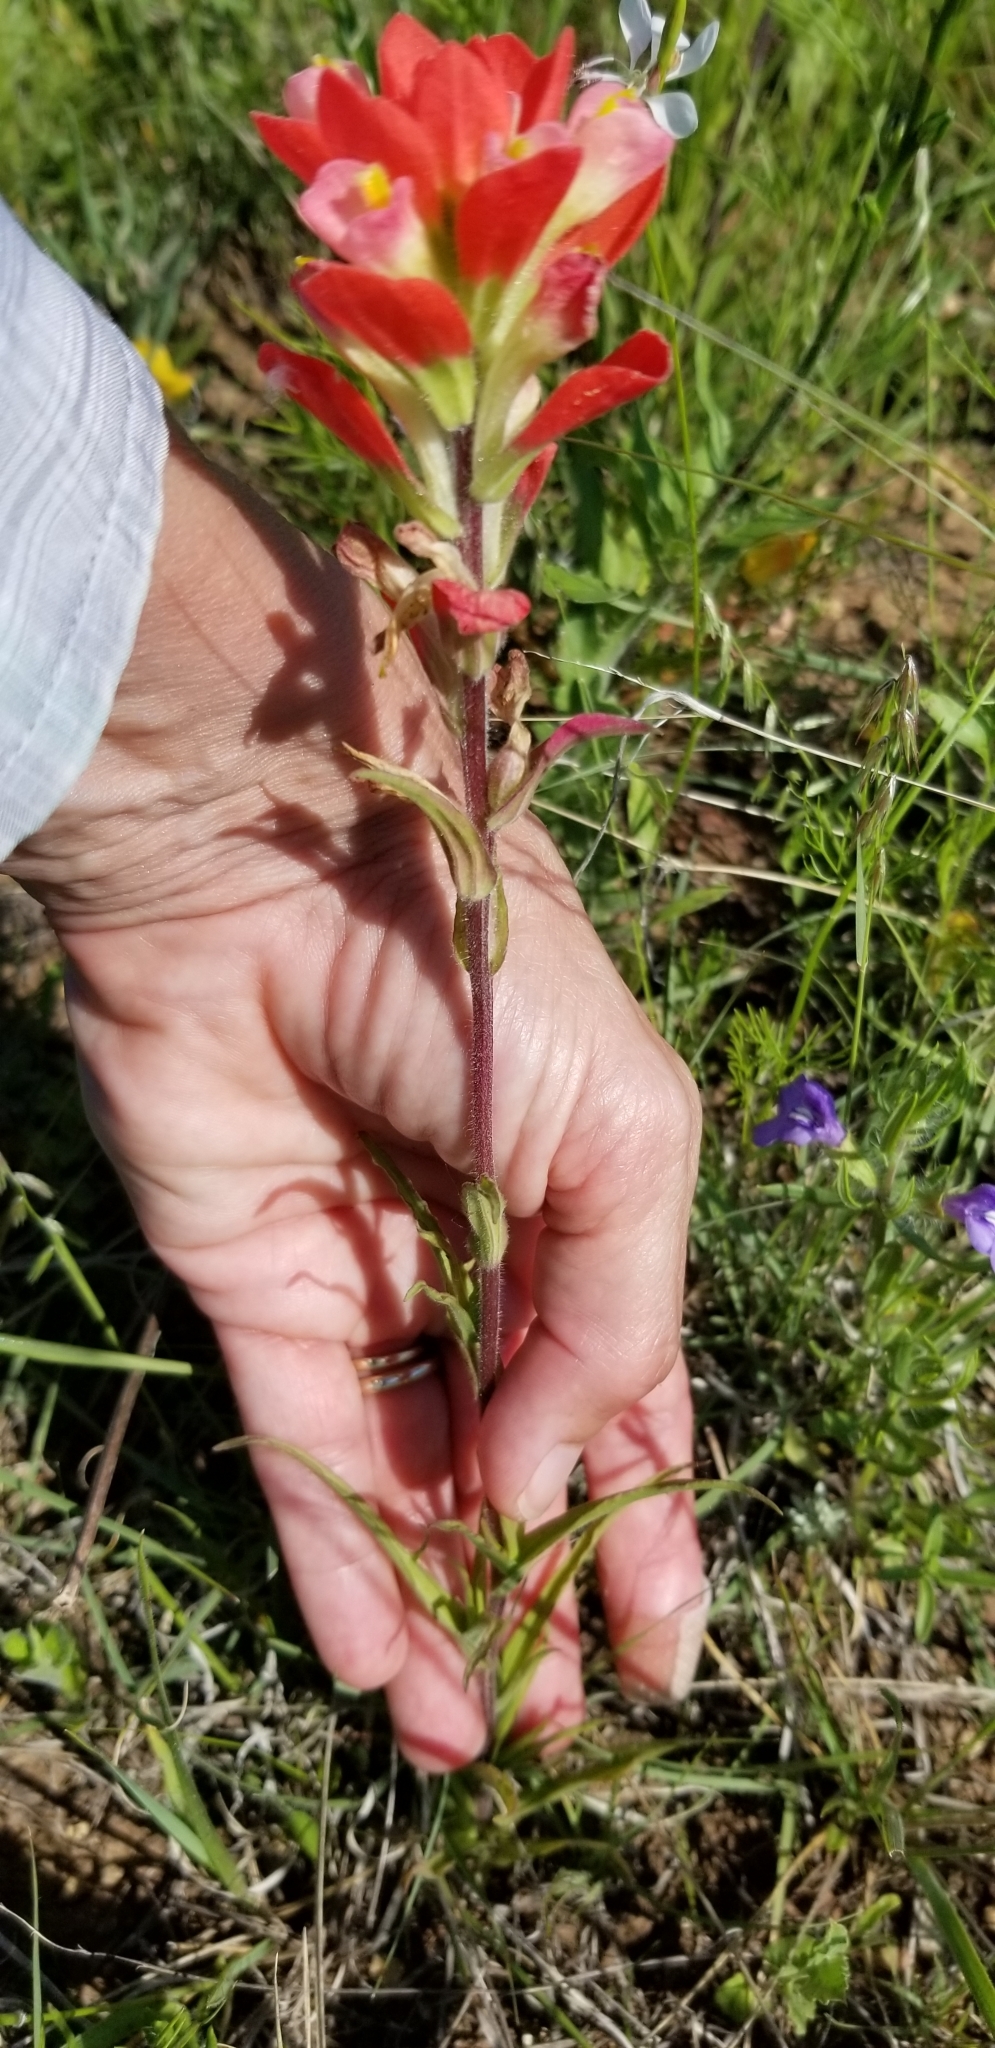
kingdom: Plantae
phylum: Tracheophyta
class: Magnoliopsida
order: Lamiales
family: Orobanchaceae
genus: Castilleja
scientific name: Castilleja indivisa
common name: Texas paintbrush
